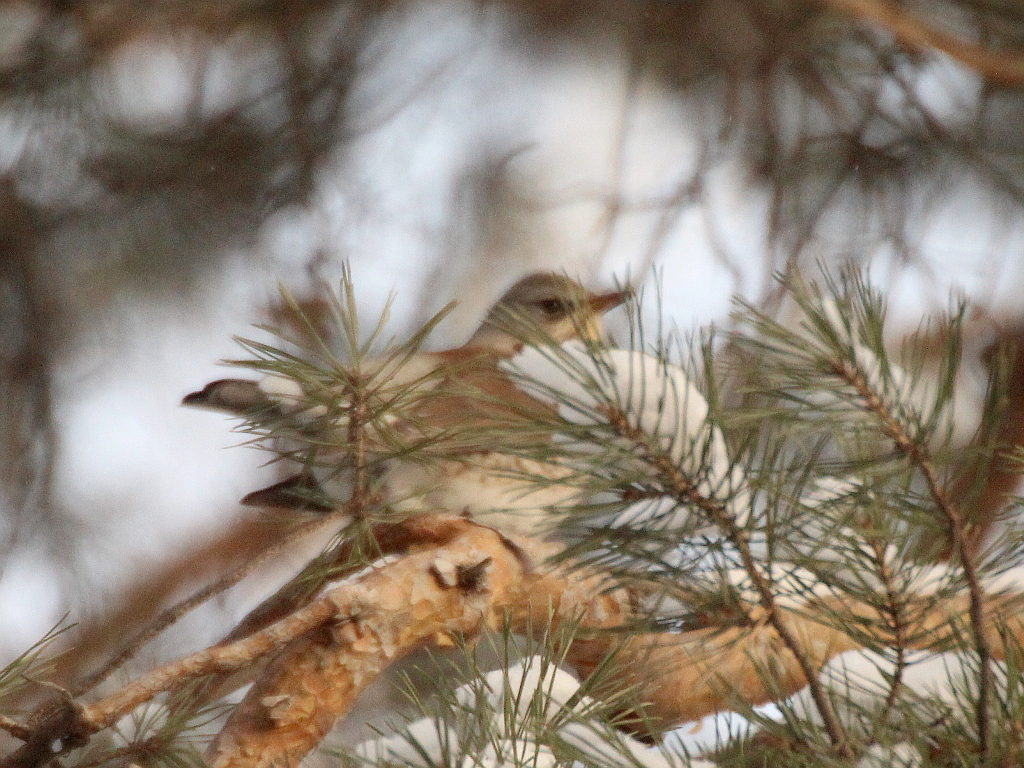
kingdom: Animalia
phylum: Chordata
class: Aves
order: Passeriformes
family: Turdidae
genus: Turdus
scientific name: Turdus pilaris
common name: Fieldfare
